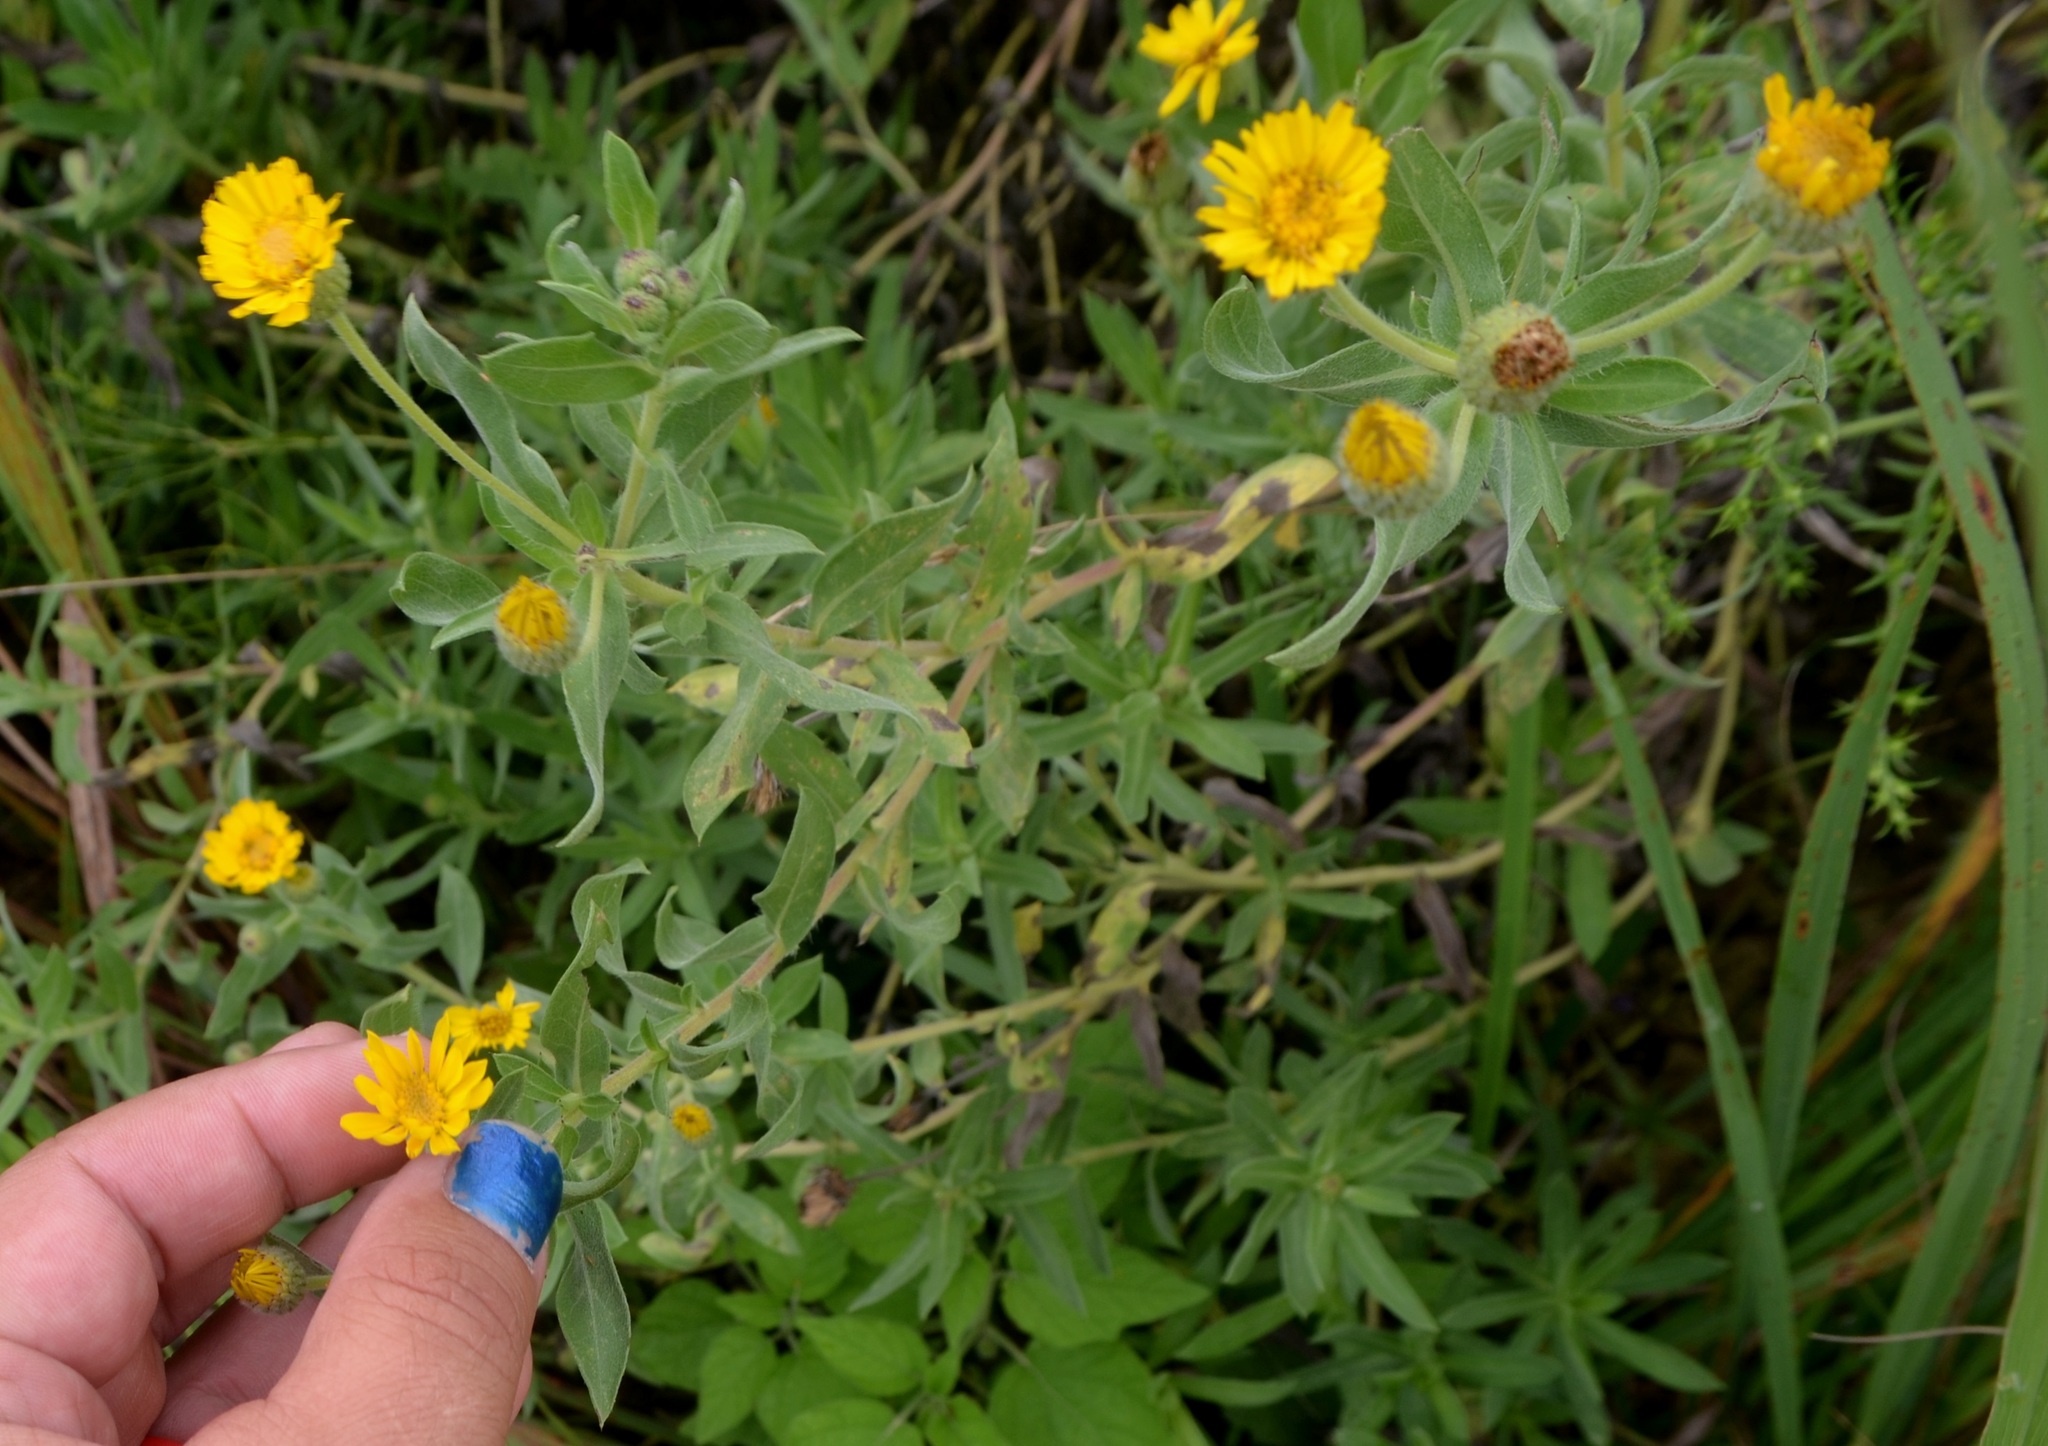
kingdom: Plantae
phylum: Tracheophyta
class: Magnoliopsida
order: Asterales
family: Asteraceae
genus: Heterotheca
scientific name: Heterotheca camporum
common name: Prairie golden-aster
